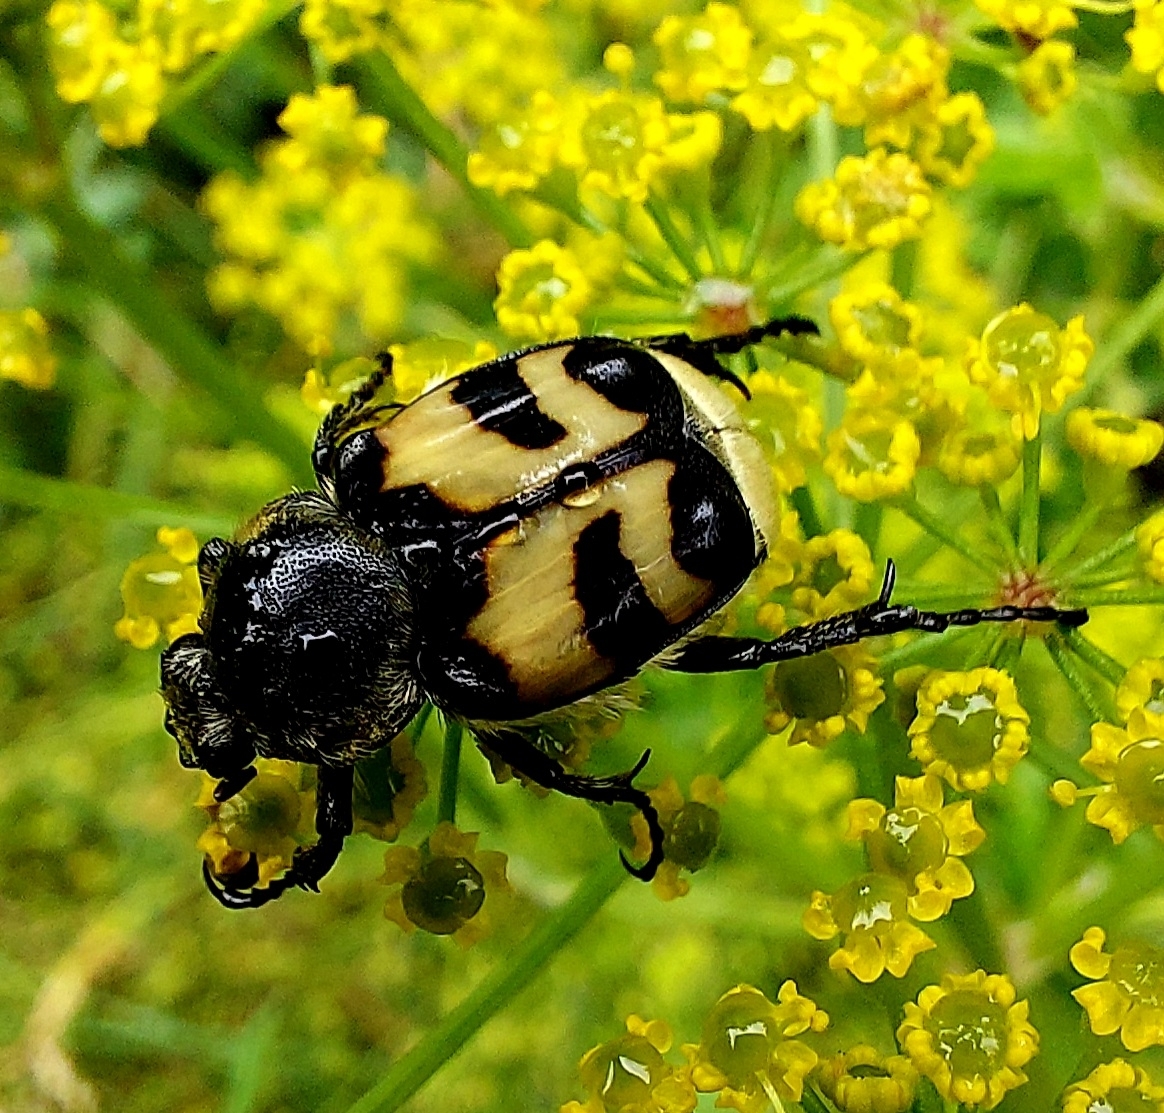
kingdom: Animalia
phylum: Arthropoda
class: Insecta
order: Coleoptera
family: Scarabaeidae
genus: Trichius
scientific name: Trichius fasciatus
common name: Bee beetle
